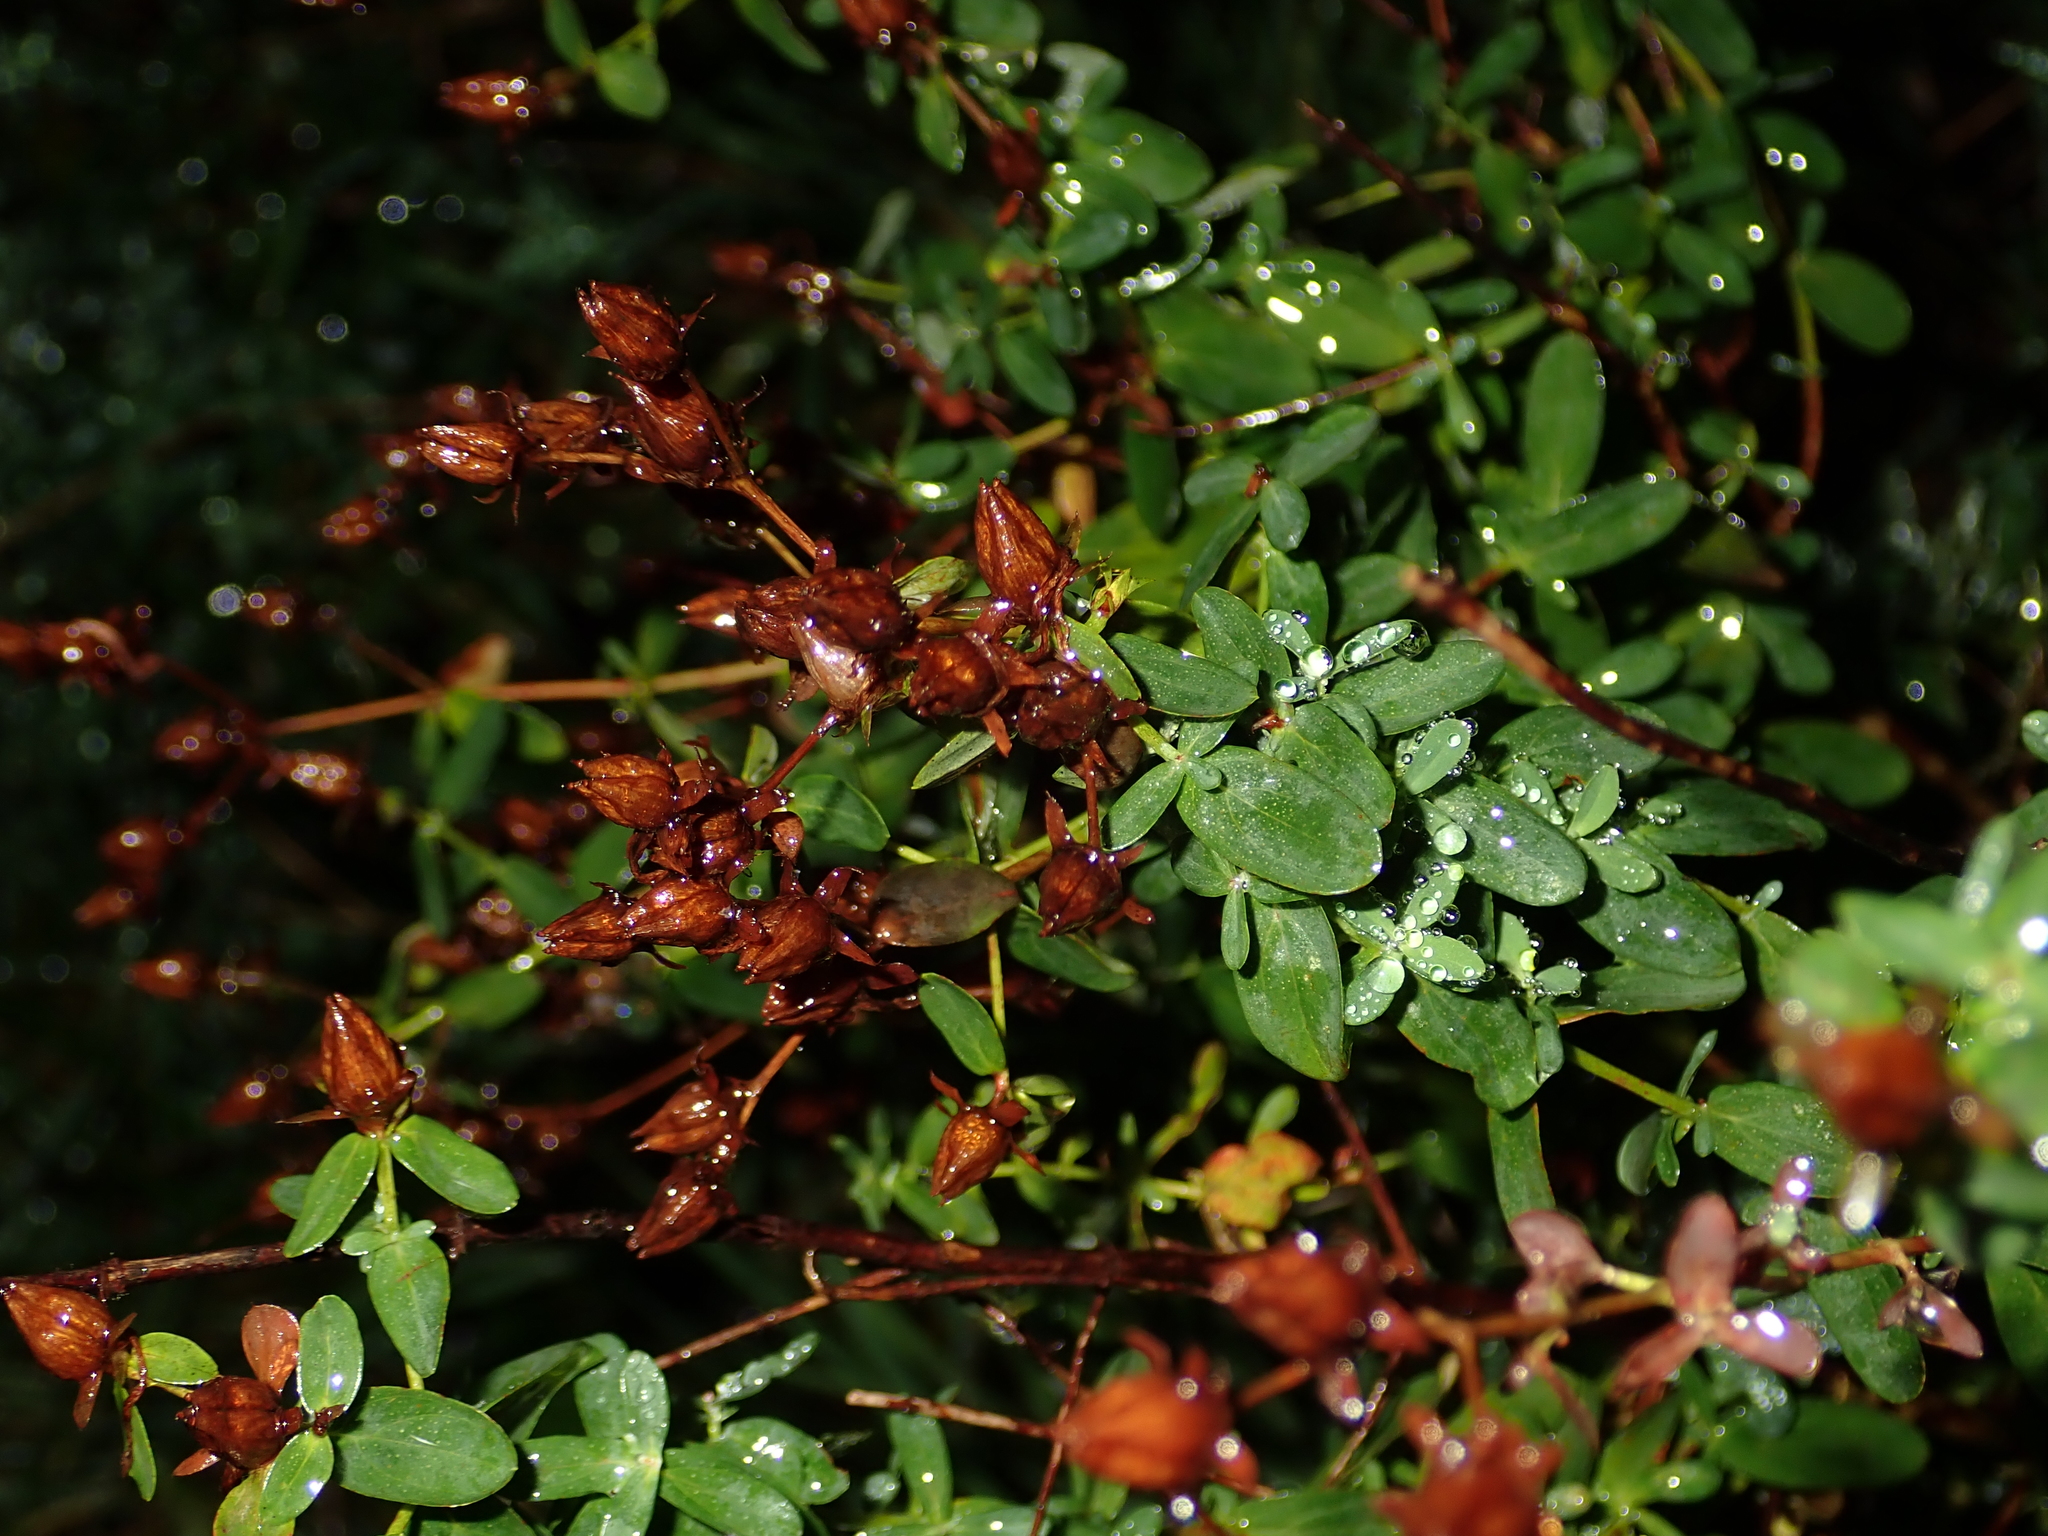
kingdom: Plantae
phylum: Tracheophyta
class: Magnoliopsida
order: Malpighiales
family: Hypericaceae
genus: Hypericum
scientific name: Hypericum perforatum
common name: Common st. johnswort
